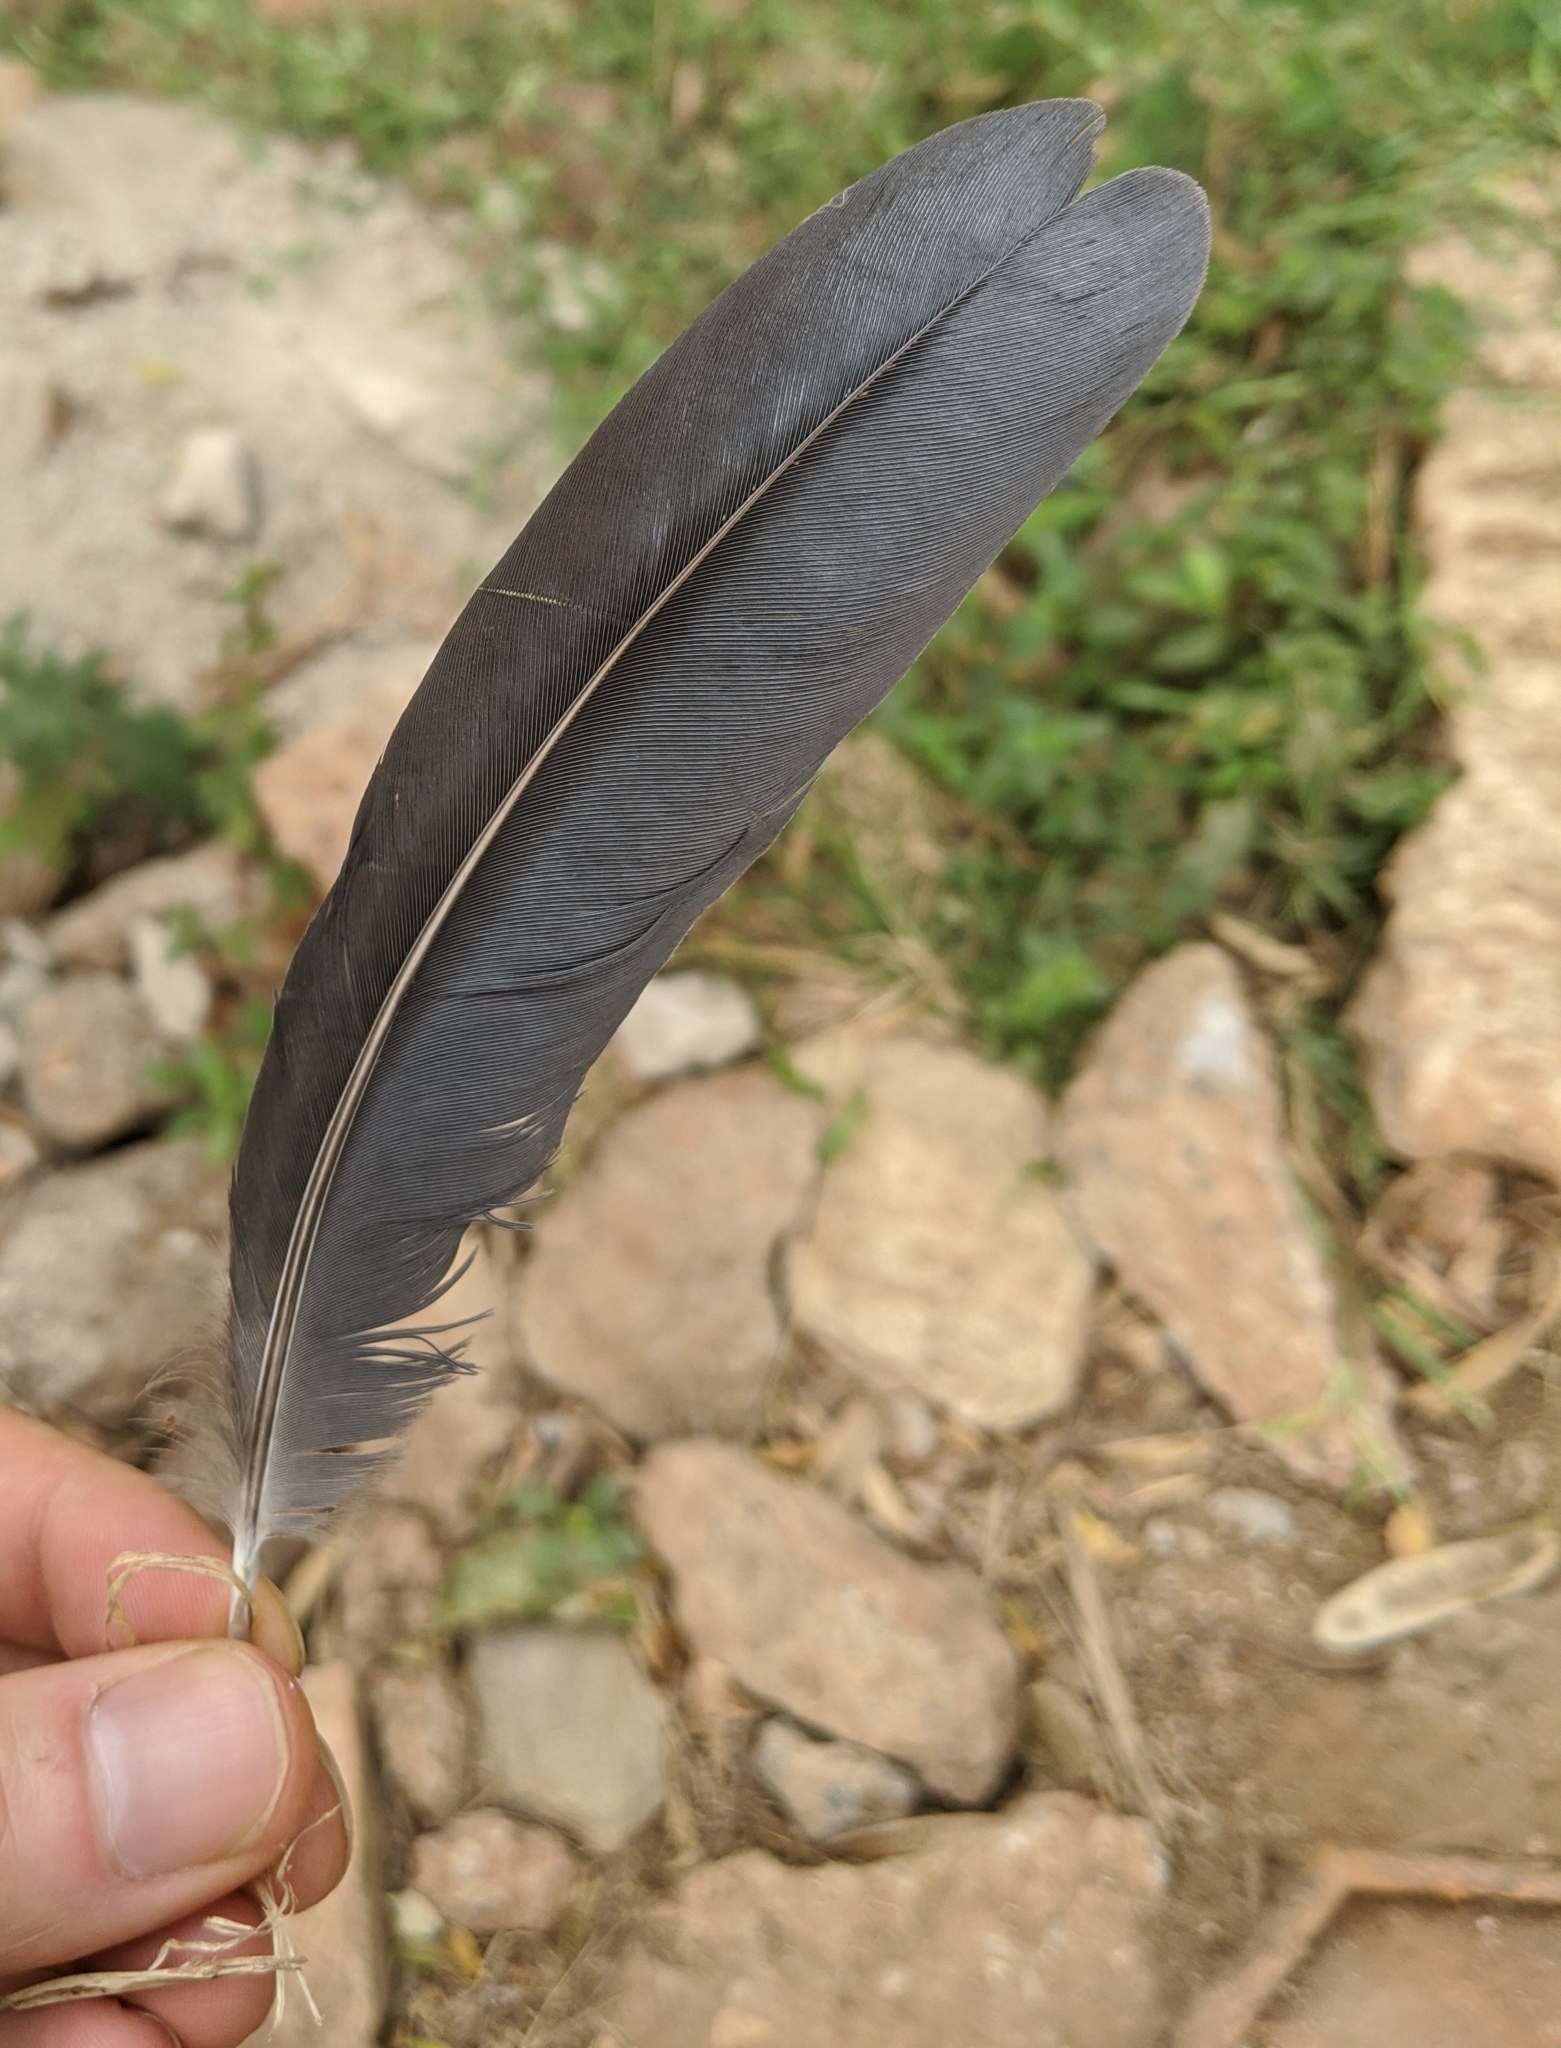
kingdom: Animalia
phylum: Chordata
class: Aves
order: Pelecaniformes
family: Ardeidae
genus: Egretta
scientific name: Egretta ardesiaca
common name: Black heron
